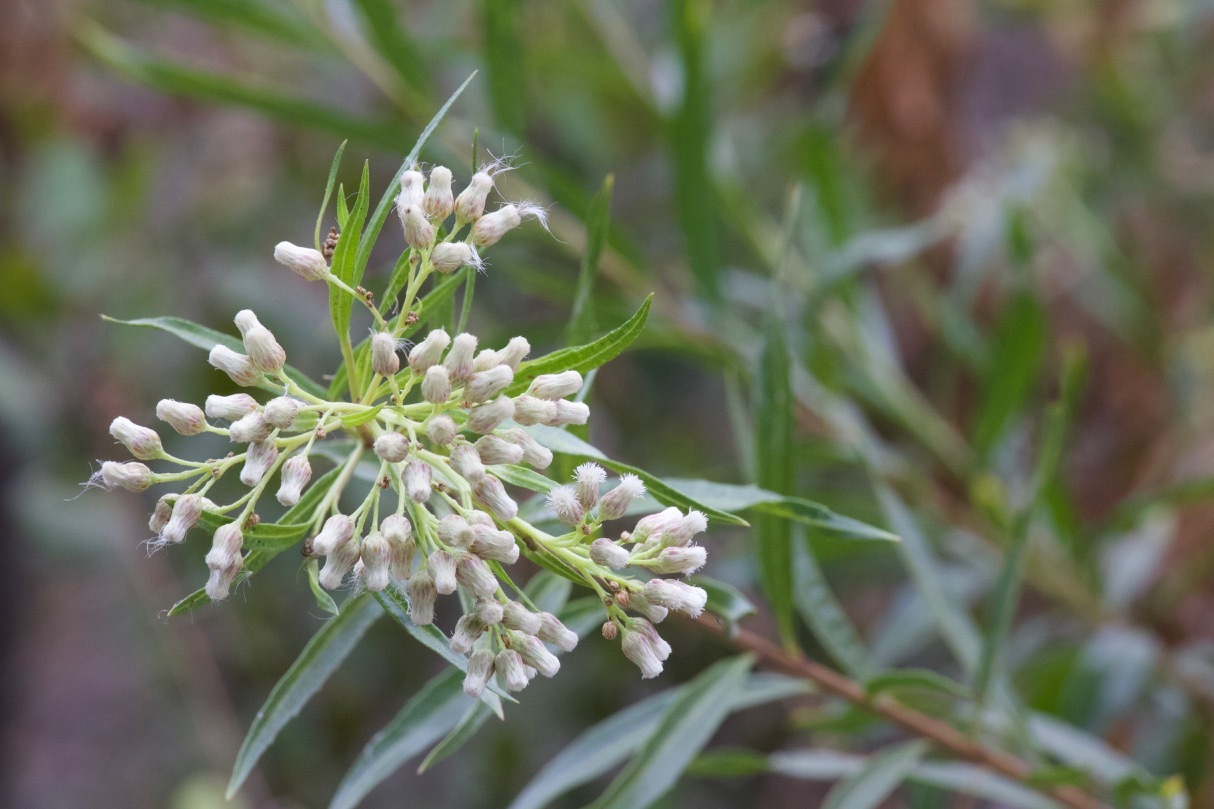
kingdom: Plantae
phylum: Tracheophyta
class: Magnoliopsida
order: Asterales
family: Asteraceae
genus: Baccharis
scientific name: Baccharis salicifolia
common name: Sticky baccharis
